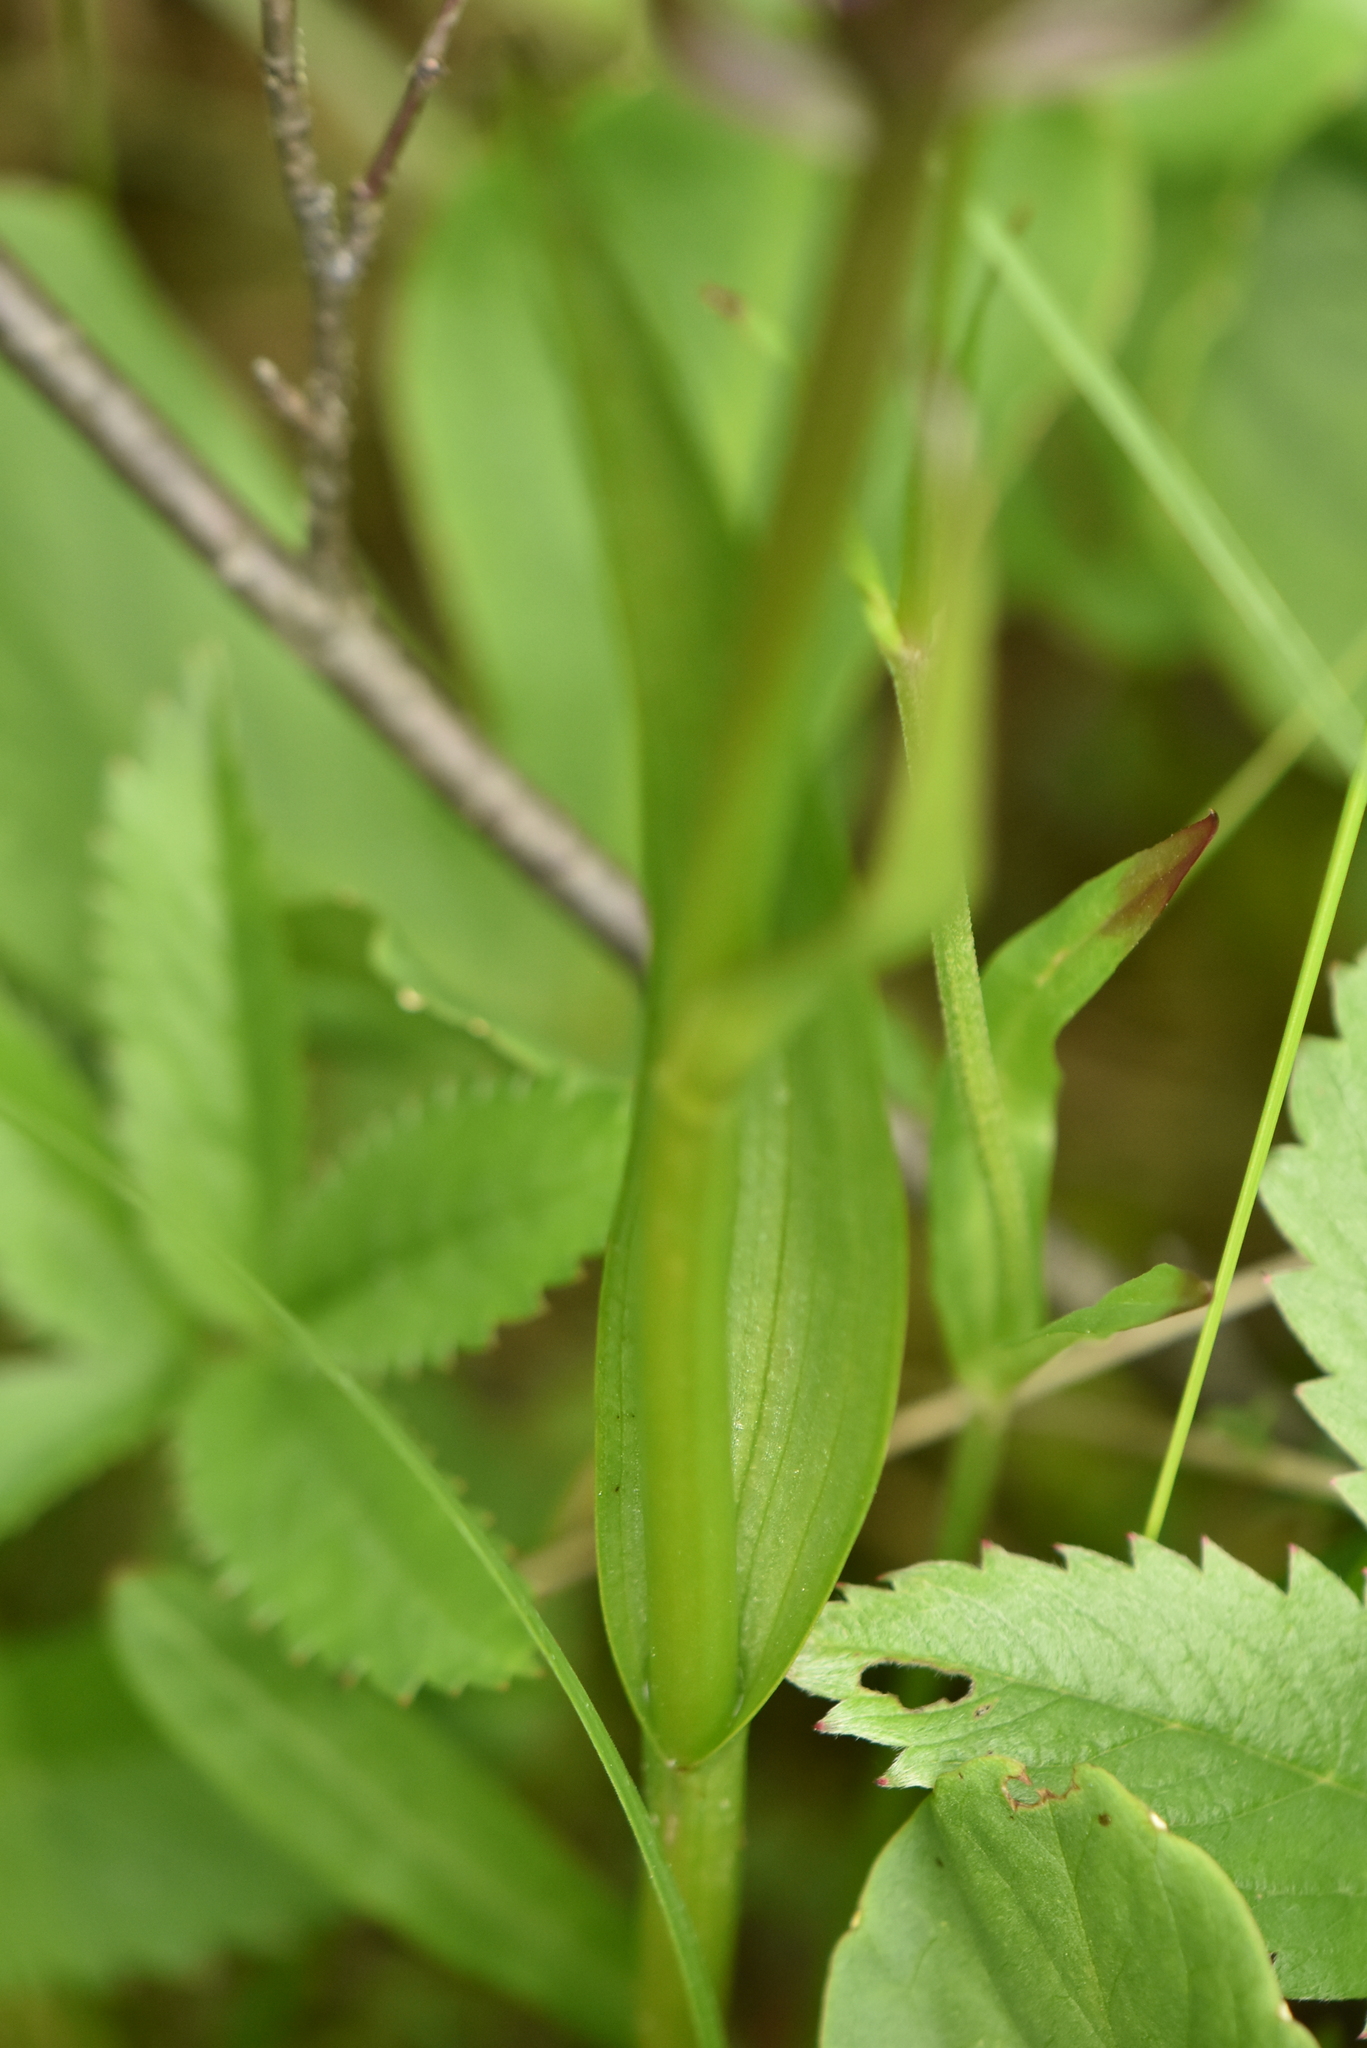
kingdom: Plantae
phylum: Tracheophyta
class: Liliopsida
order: Asparagales
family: Orchidaceae
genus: Dactylorhiza
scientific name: Dactylorhiza incarnata
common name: Early marsh-orchid
